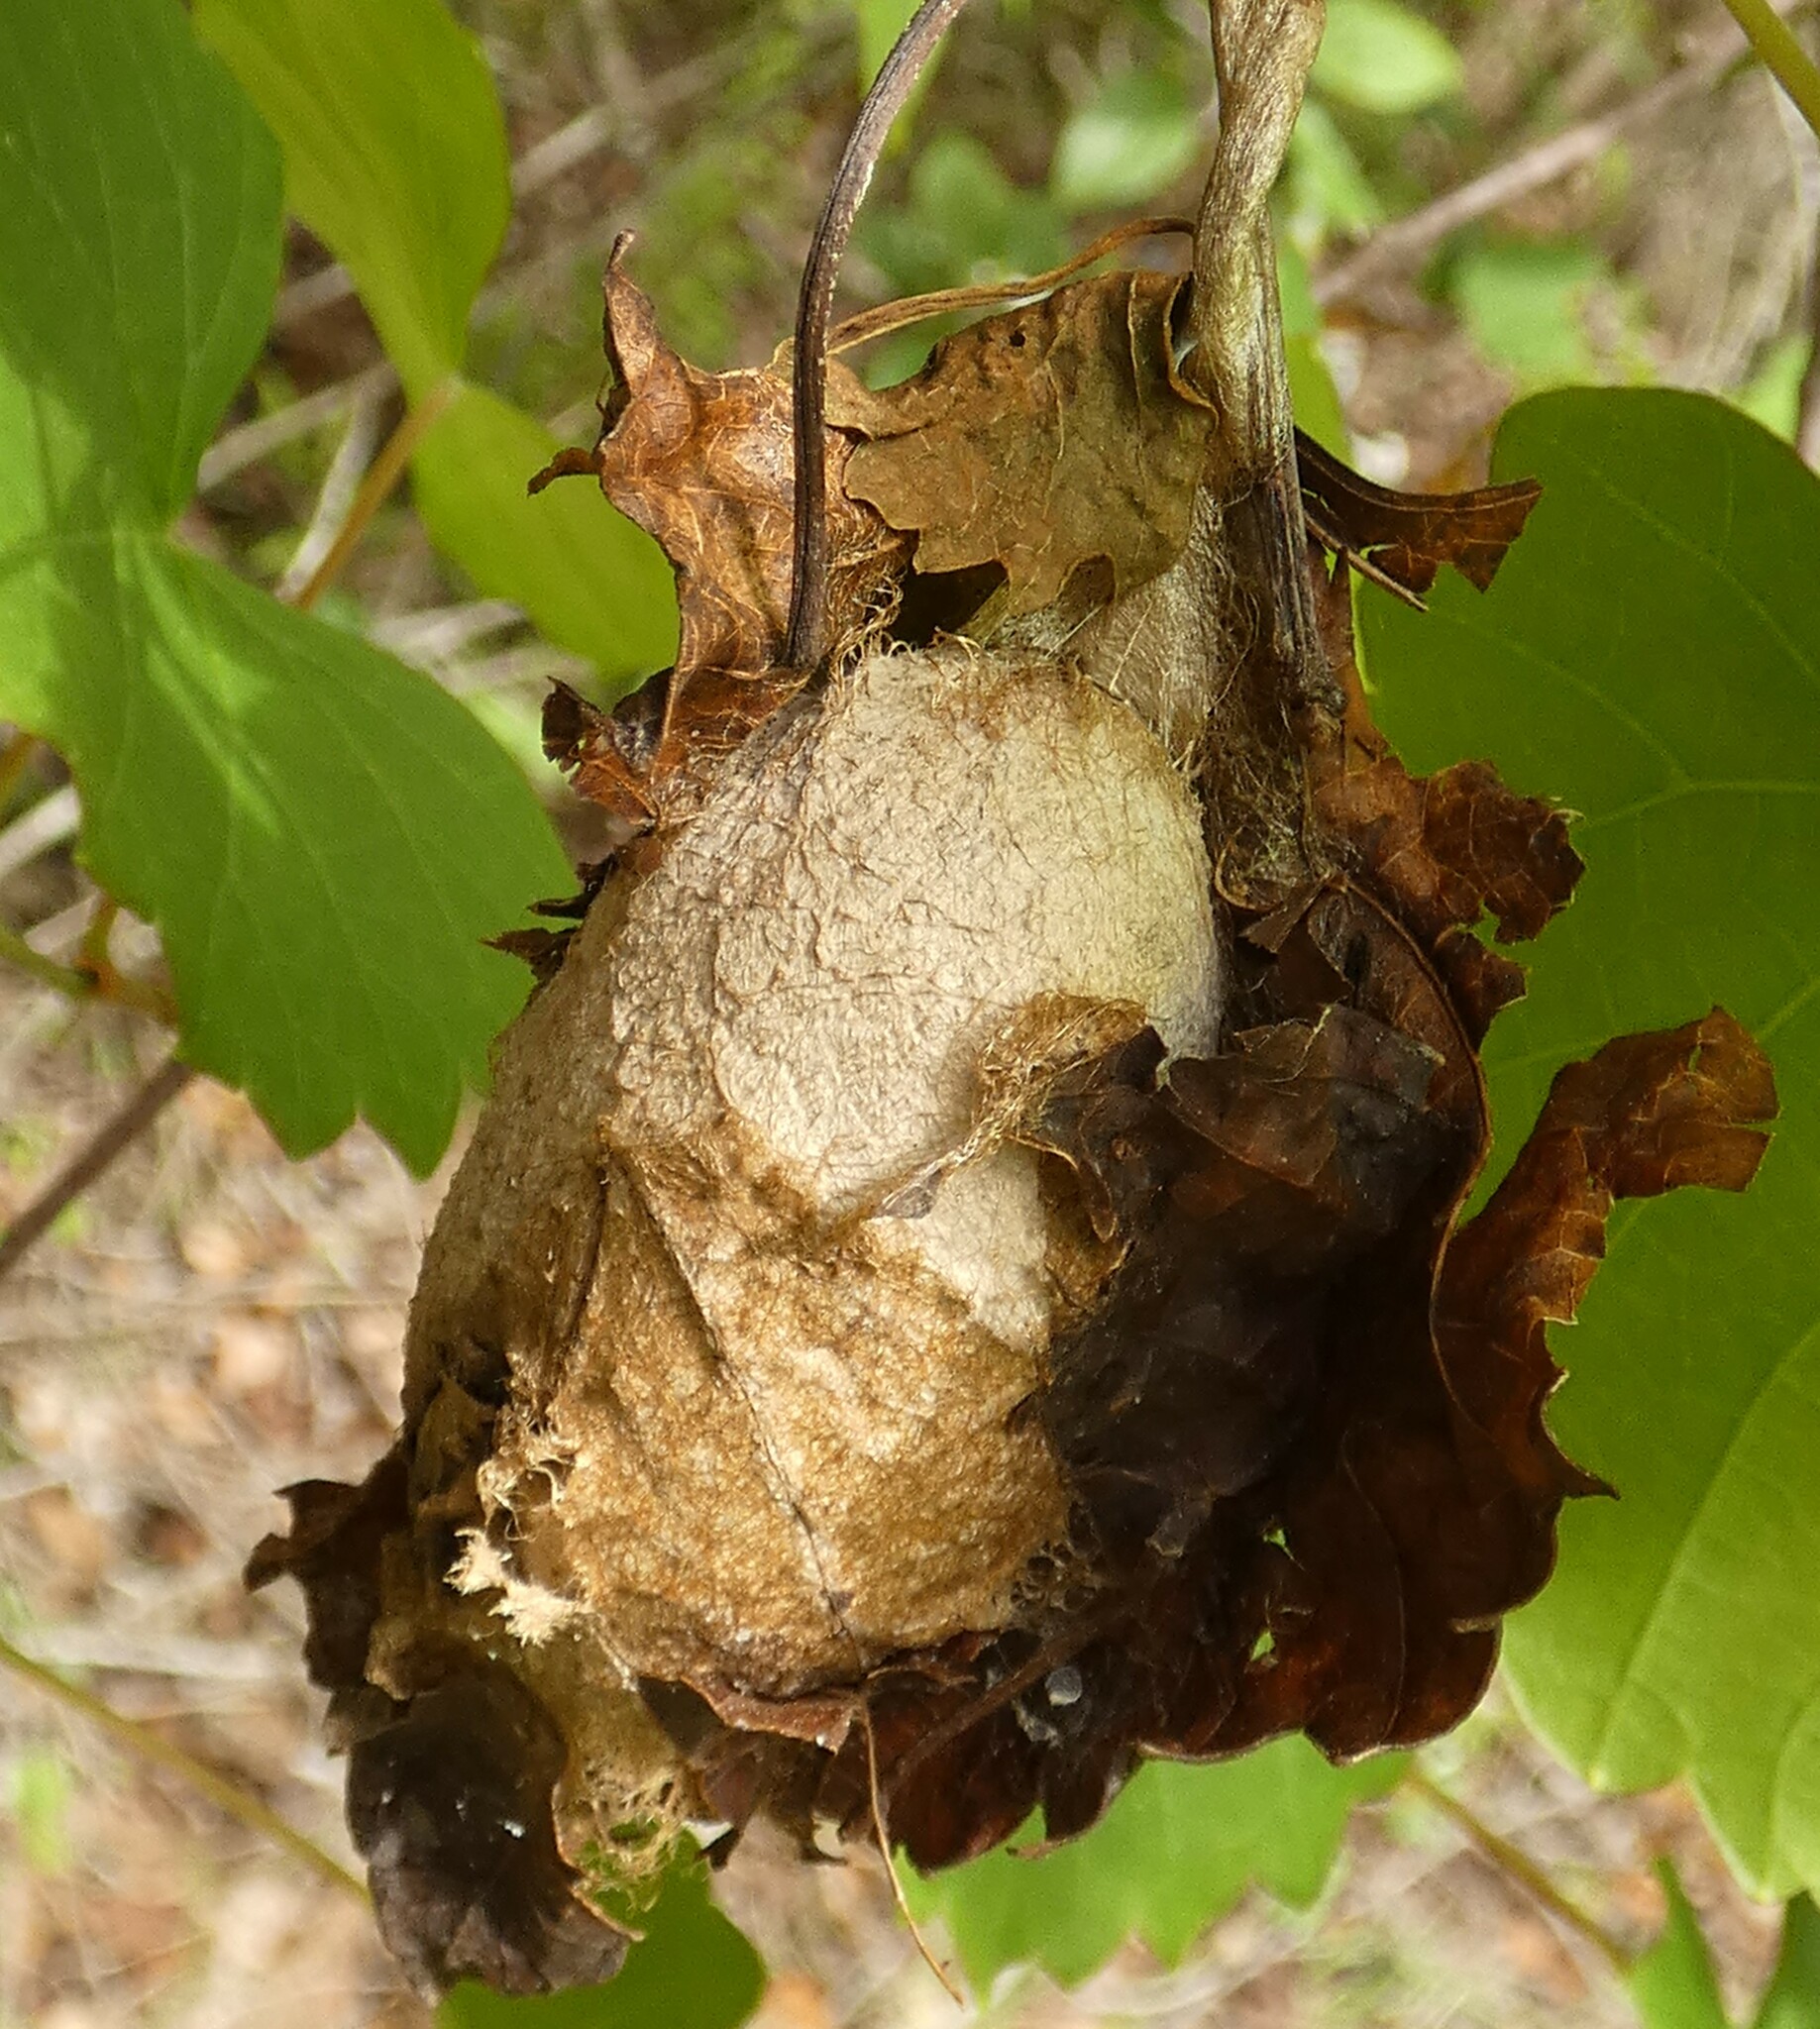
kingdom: Animalia
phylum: Arthropoda
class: Insecta
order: Lepidoptera
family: Saturniidae
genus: Antheraea
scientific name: Antheraea polyphemus
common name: Polyphemus moth
